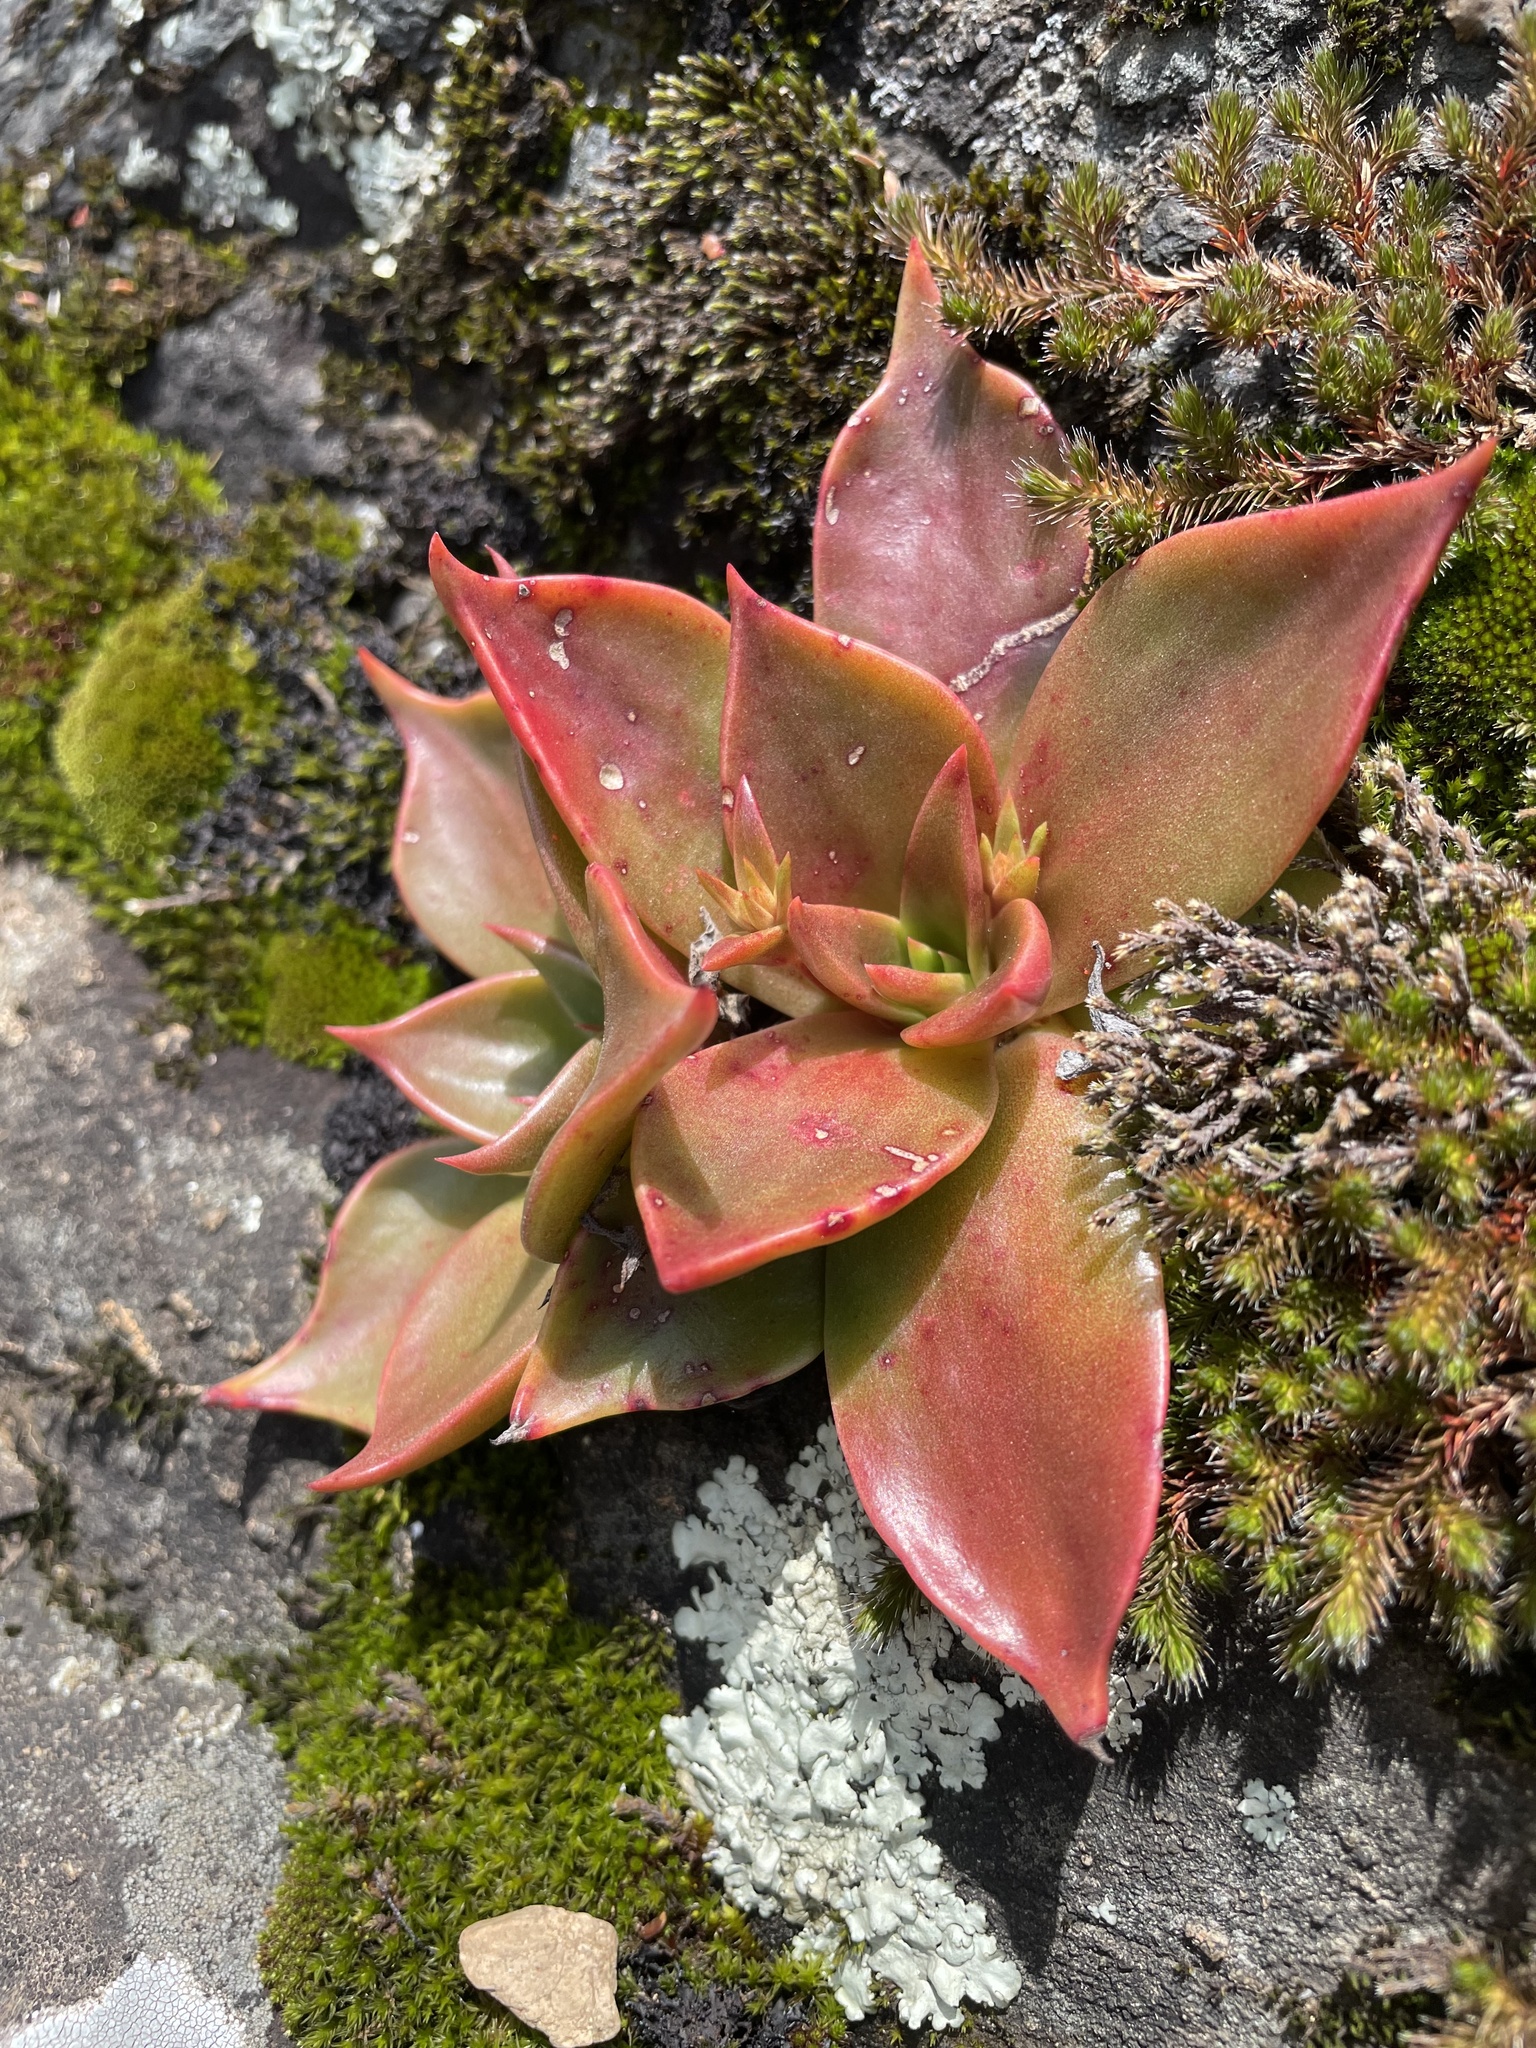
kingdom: Plantae
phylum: Tracheophyta
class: Magnoliopsida
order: Saxifragales
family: Crassulaceae
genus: Dudleya
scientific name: Dudleya cymosa
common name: Canyon dudleya
